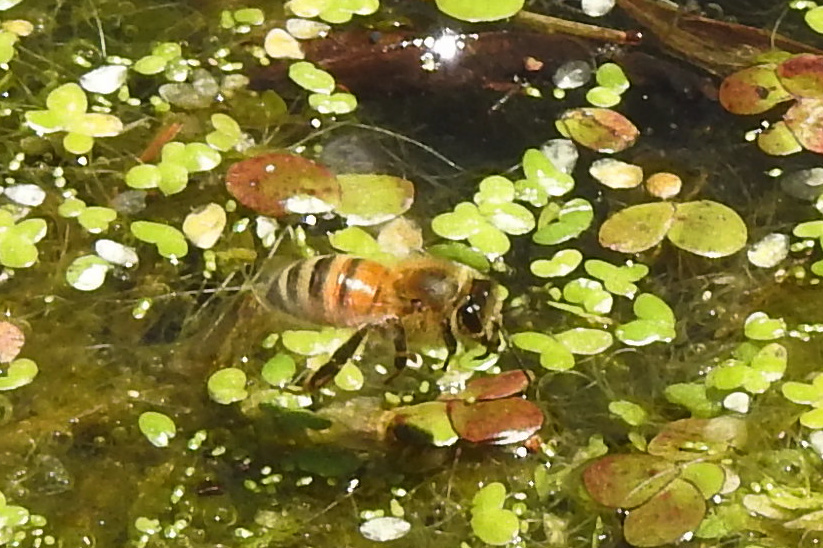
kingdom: Animalia
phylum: Arthropoda
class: Insecta
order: Hymenoptera
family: Apidae
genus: Apis
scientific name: Apis mellifera
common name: Honey bee
